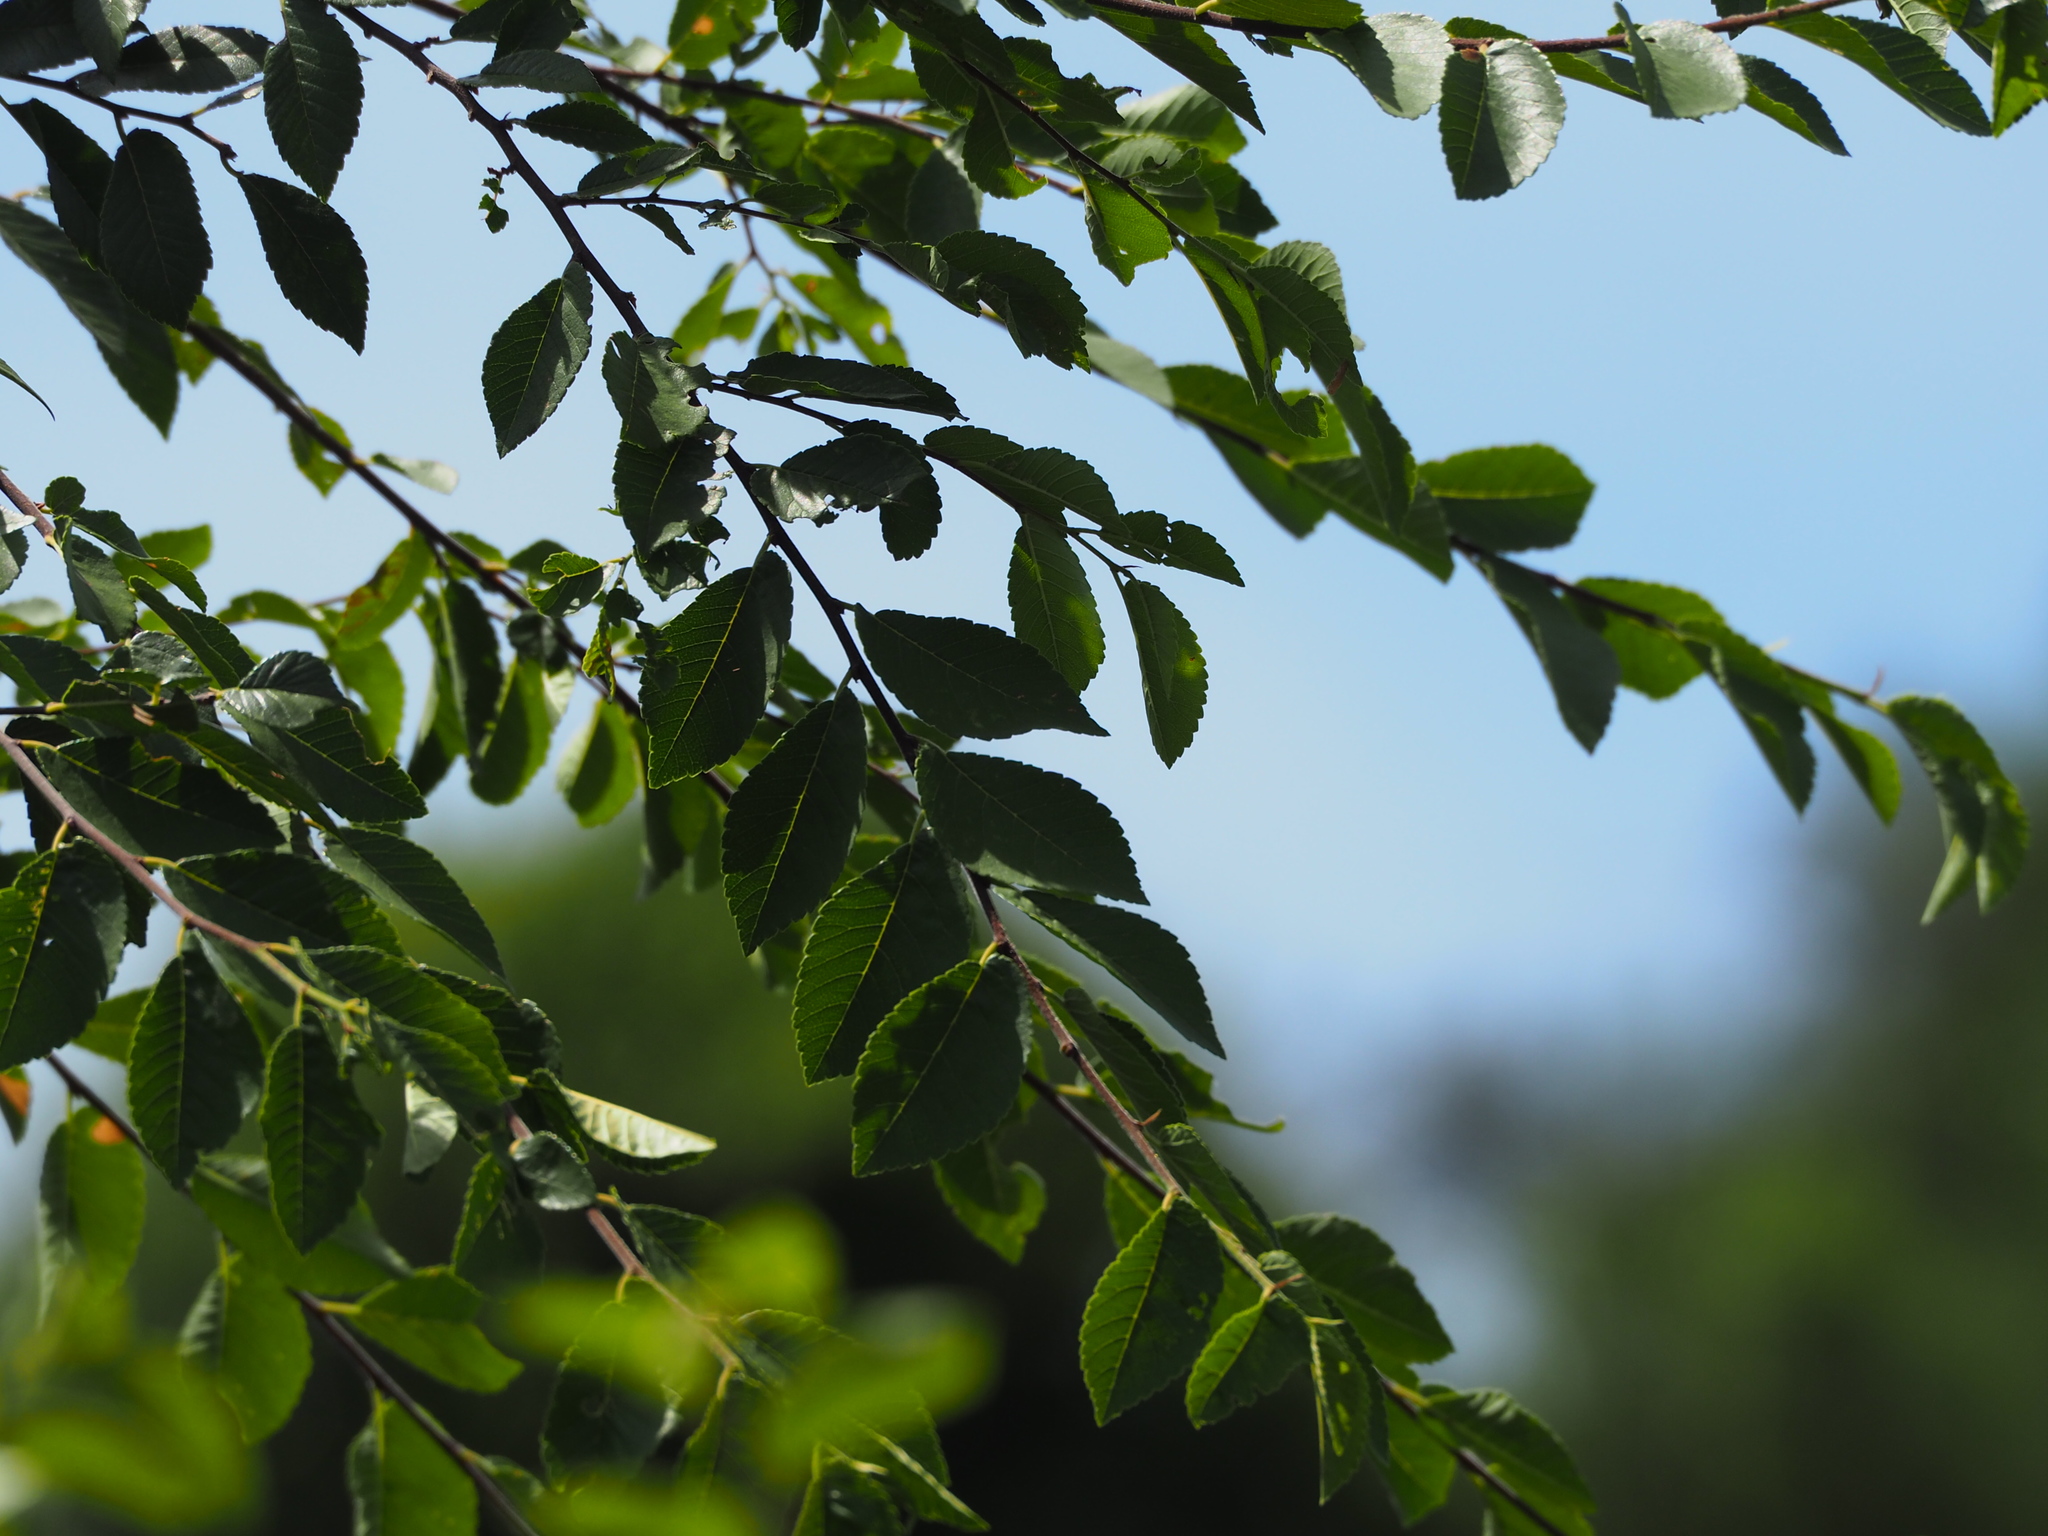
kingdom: Plantae
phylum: Tracheophyta
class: Magnoliopsida
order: Rosales
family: Ulmaceae
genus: Ulmus
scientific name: Ulmus parvifolia
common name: Chinese elm
